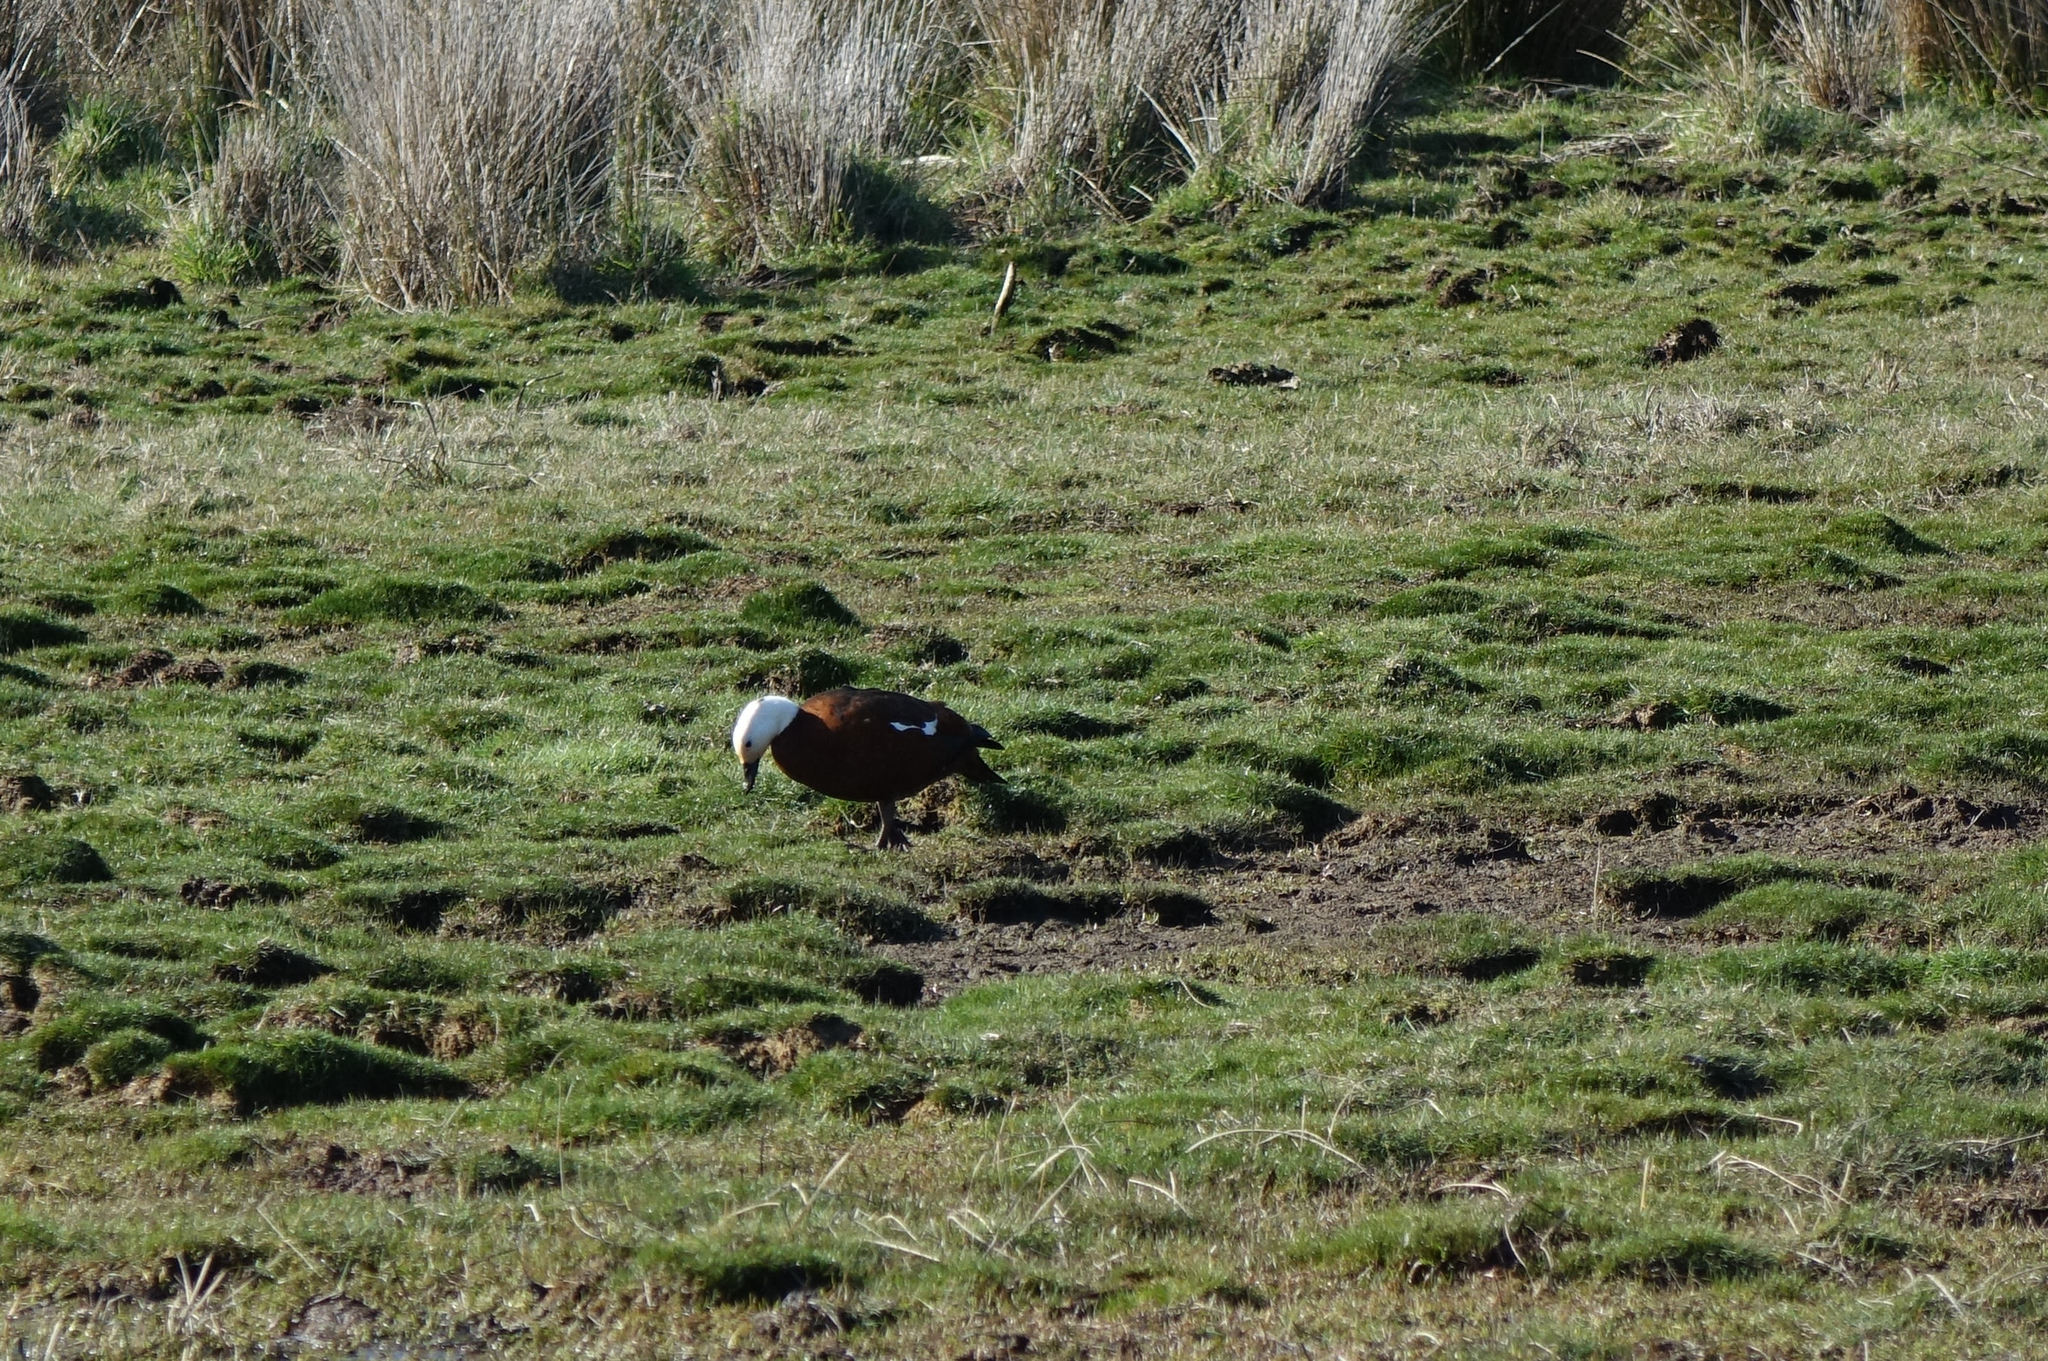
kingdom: Animalia
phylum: Chordata
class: Aves
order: Anseriformes
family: Anatidae
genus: Tadorna
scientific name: Tadorna variegata
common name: Paradise shelduck
